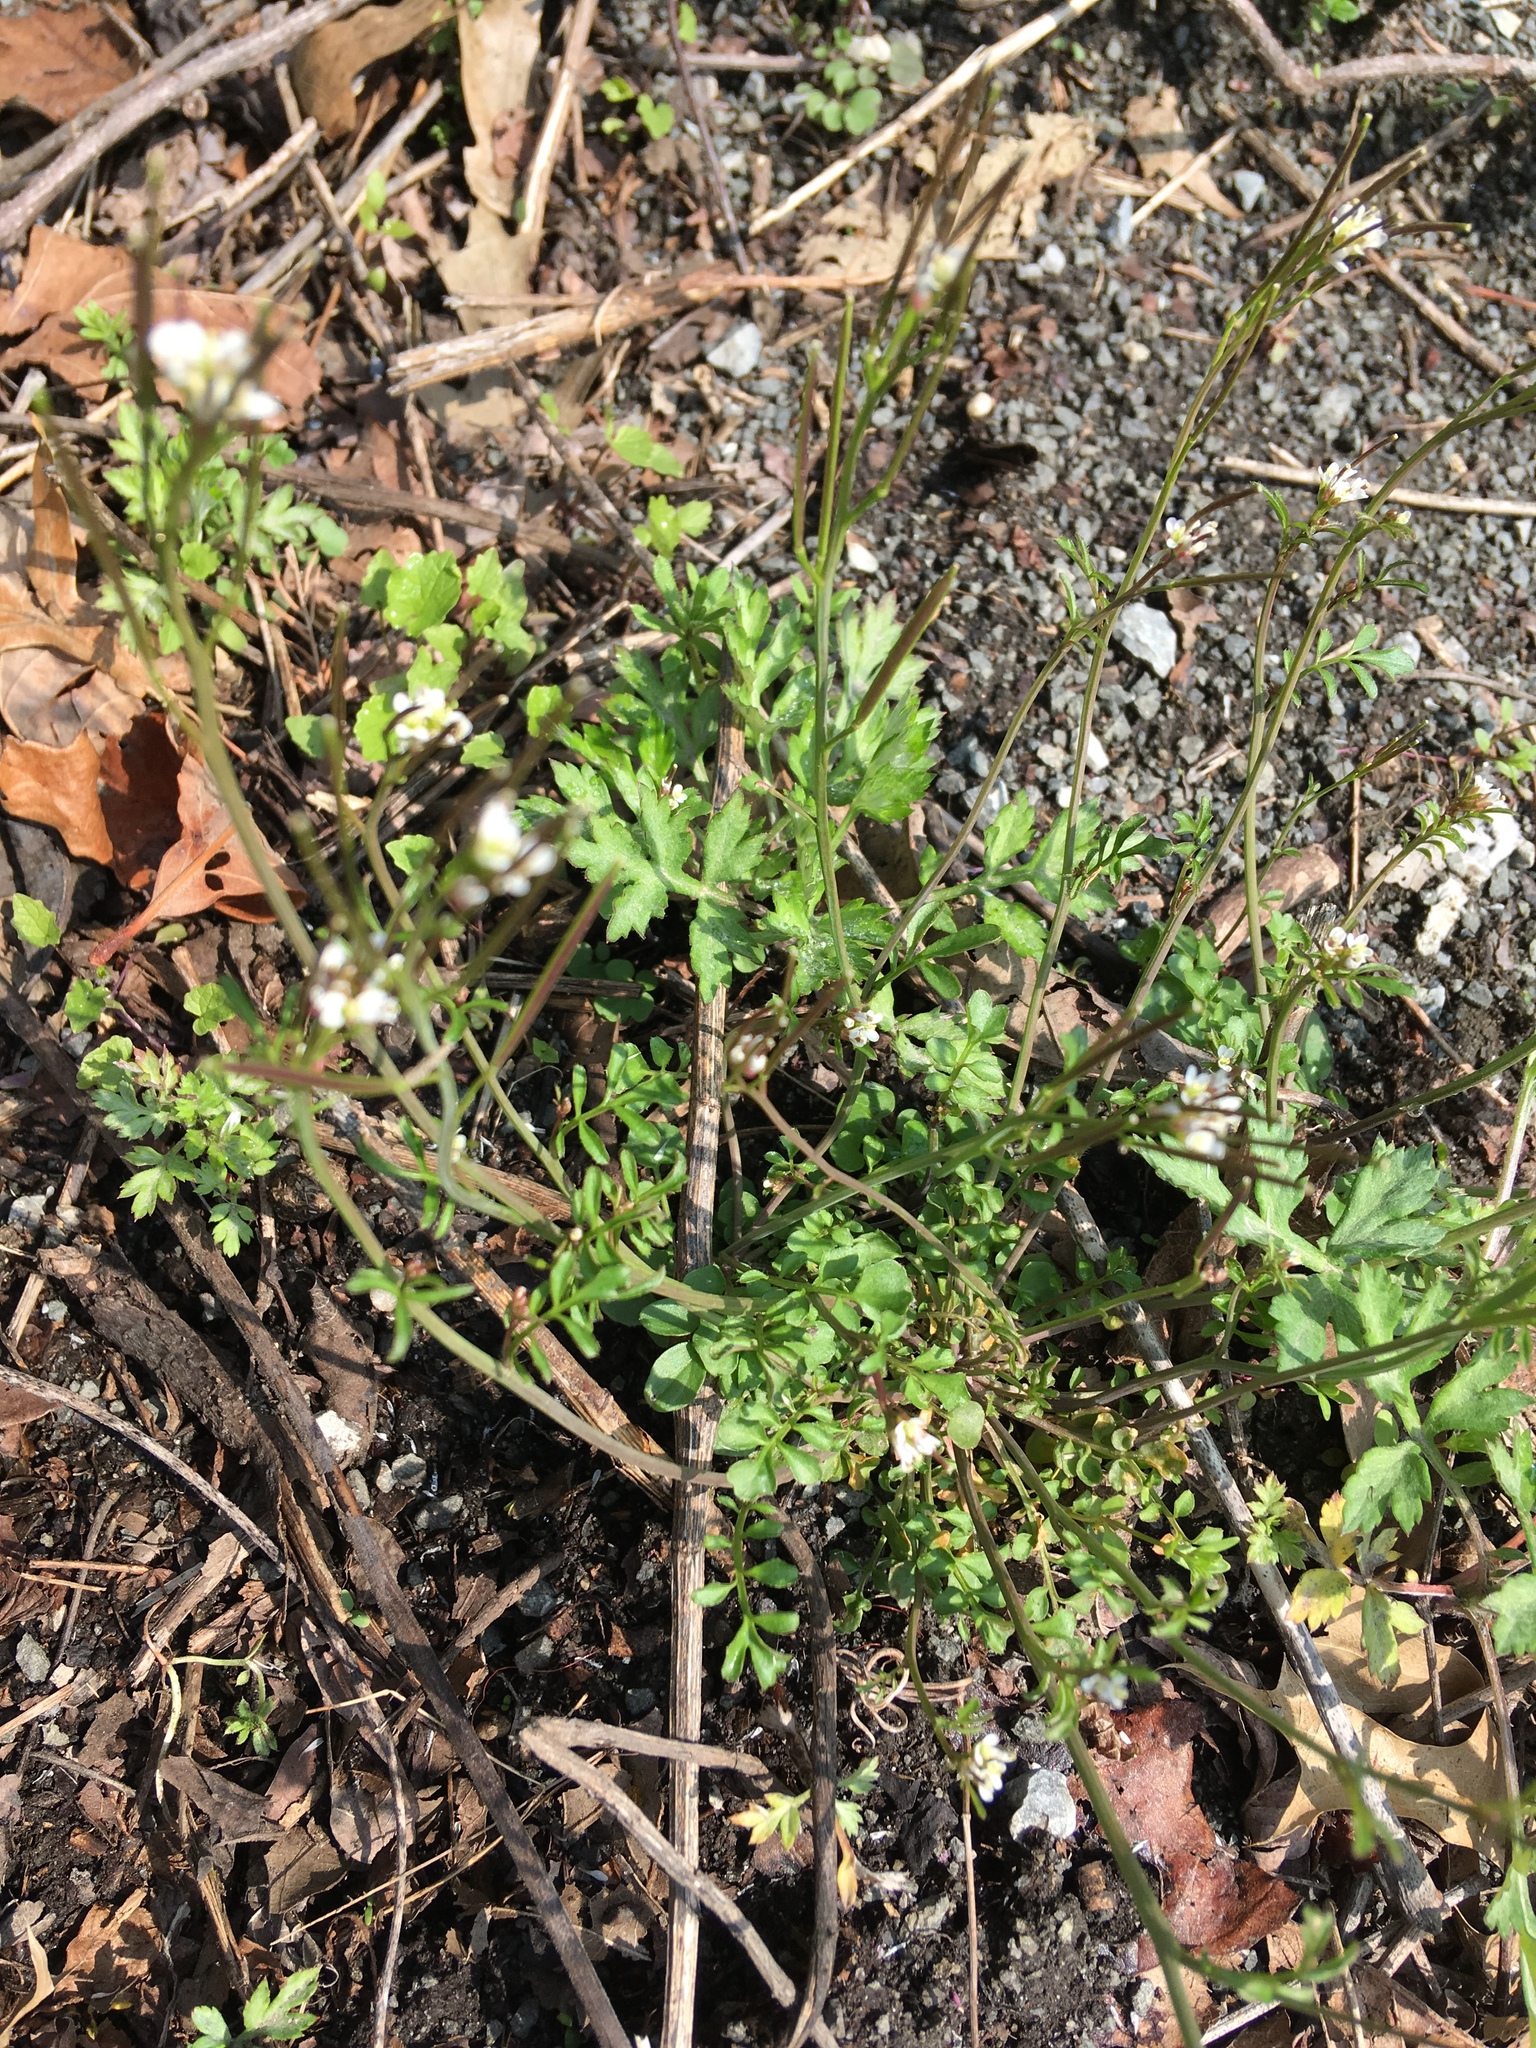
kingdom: Plantae
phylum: Tracheophyta
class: Magnoliopsida
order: Brassicales
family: Brassicaceae
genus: Cardamine
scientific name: Cardamine hirsuta
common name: Hairy bittercress
